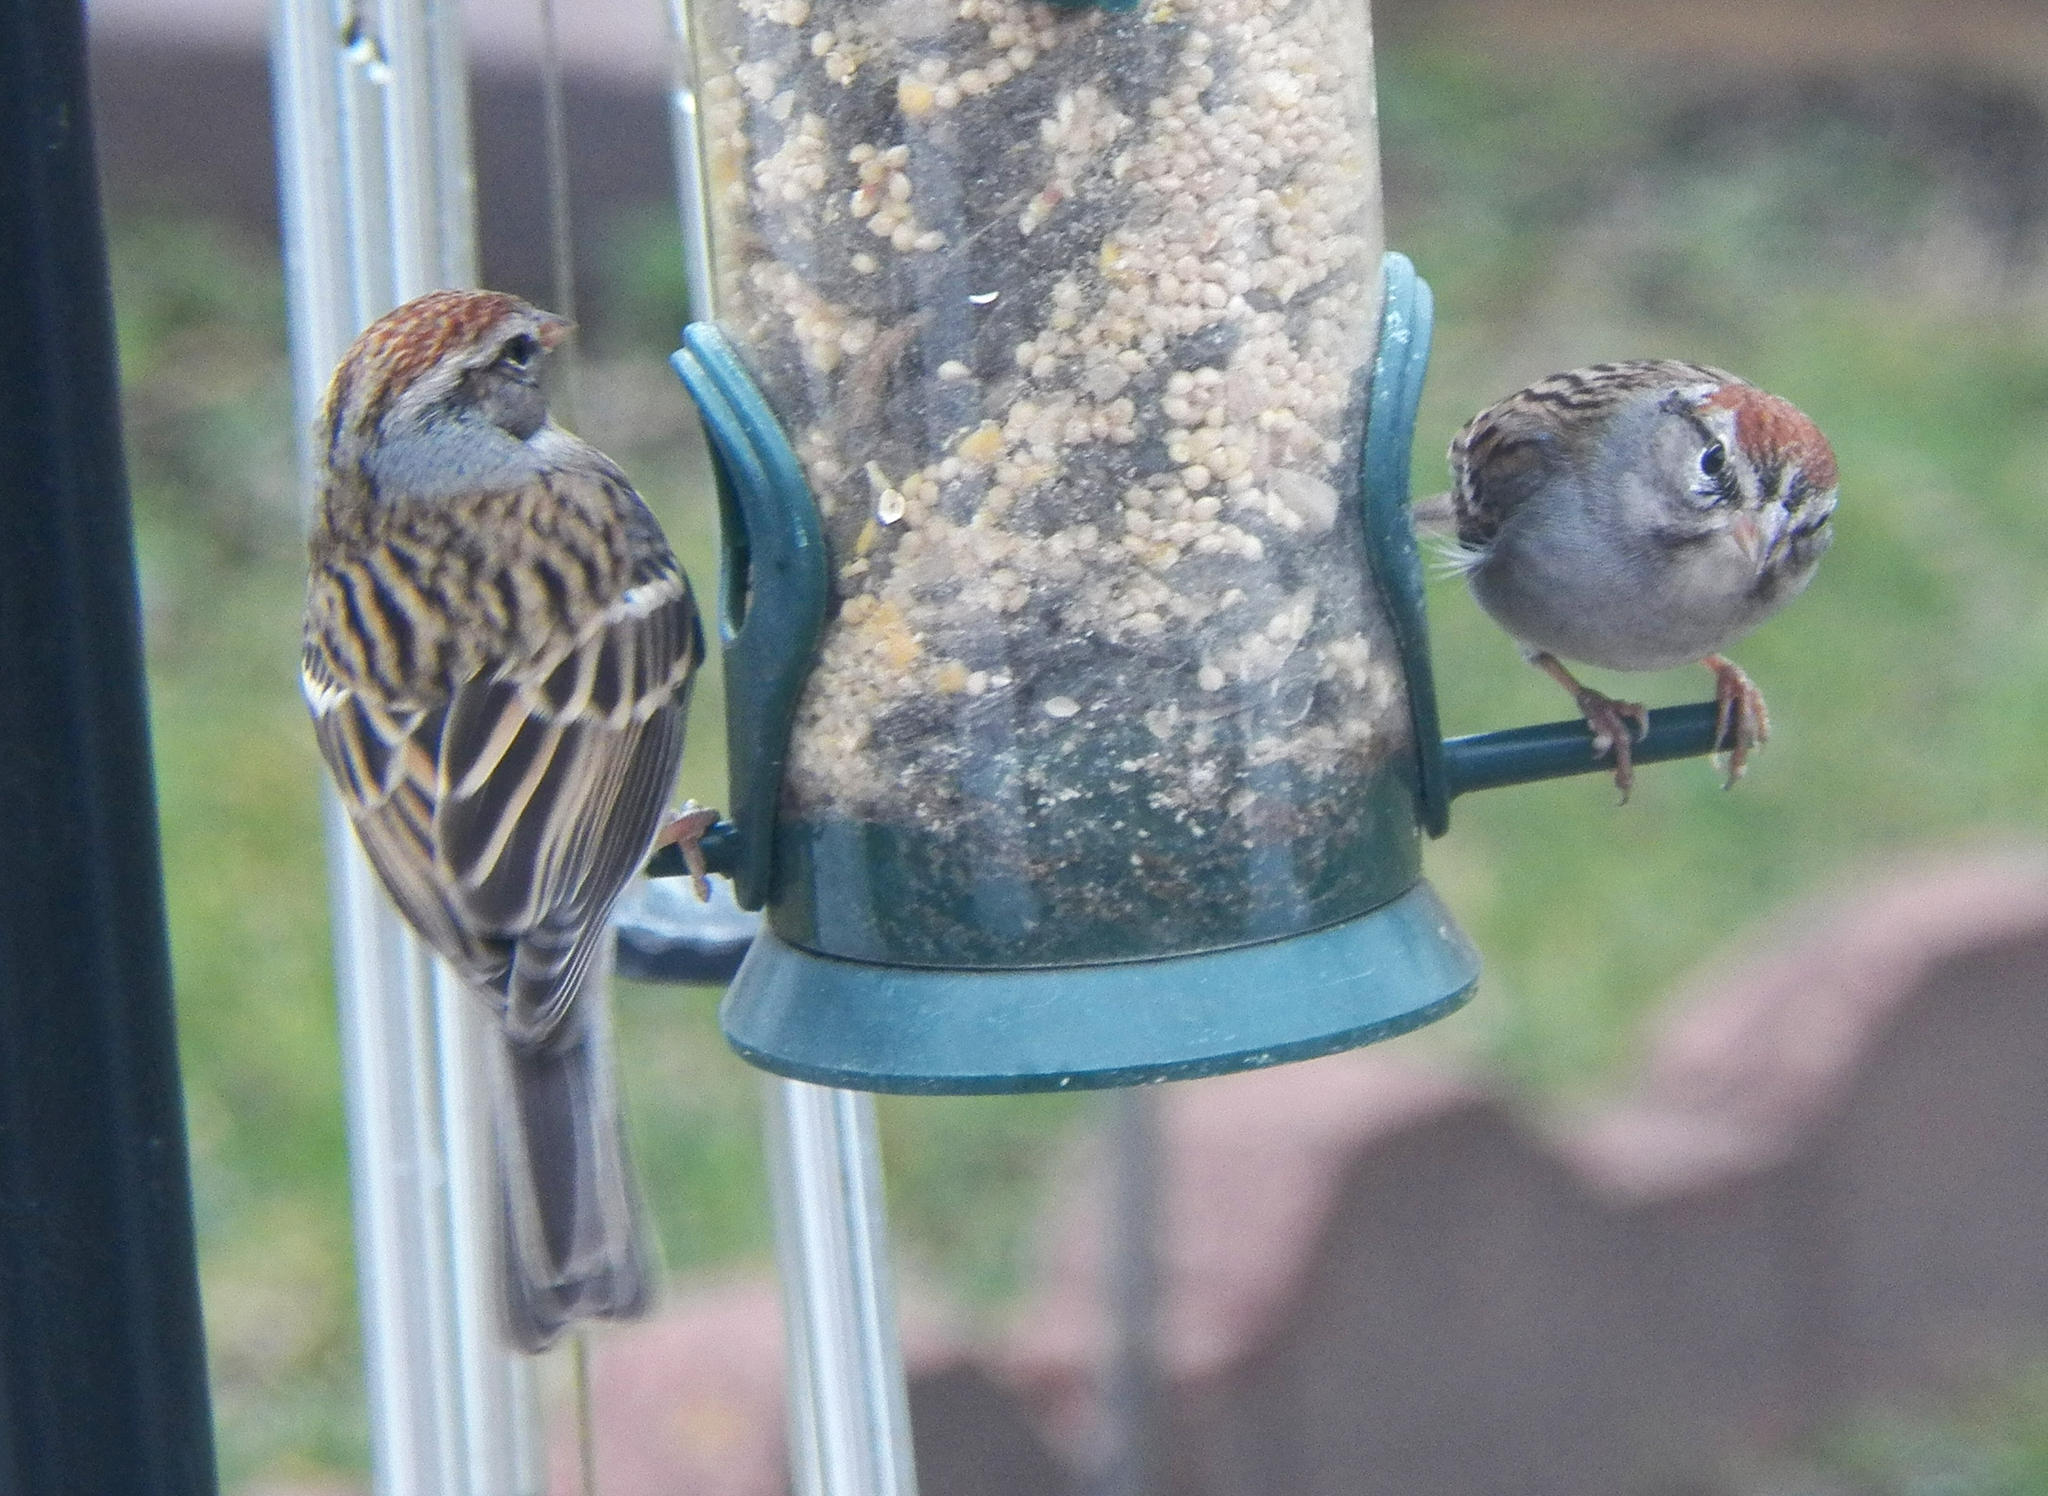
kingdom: Animalia
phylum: Chordata
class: Aves
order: Passeriformes
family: Passerellidae
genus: Spizella
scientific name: Spizella passerina
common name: Chipping sparrow
